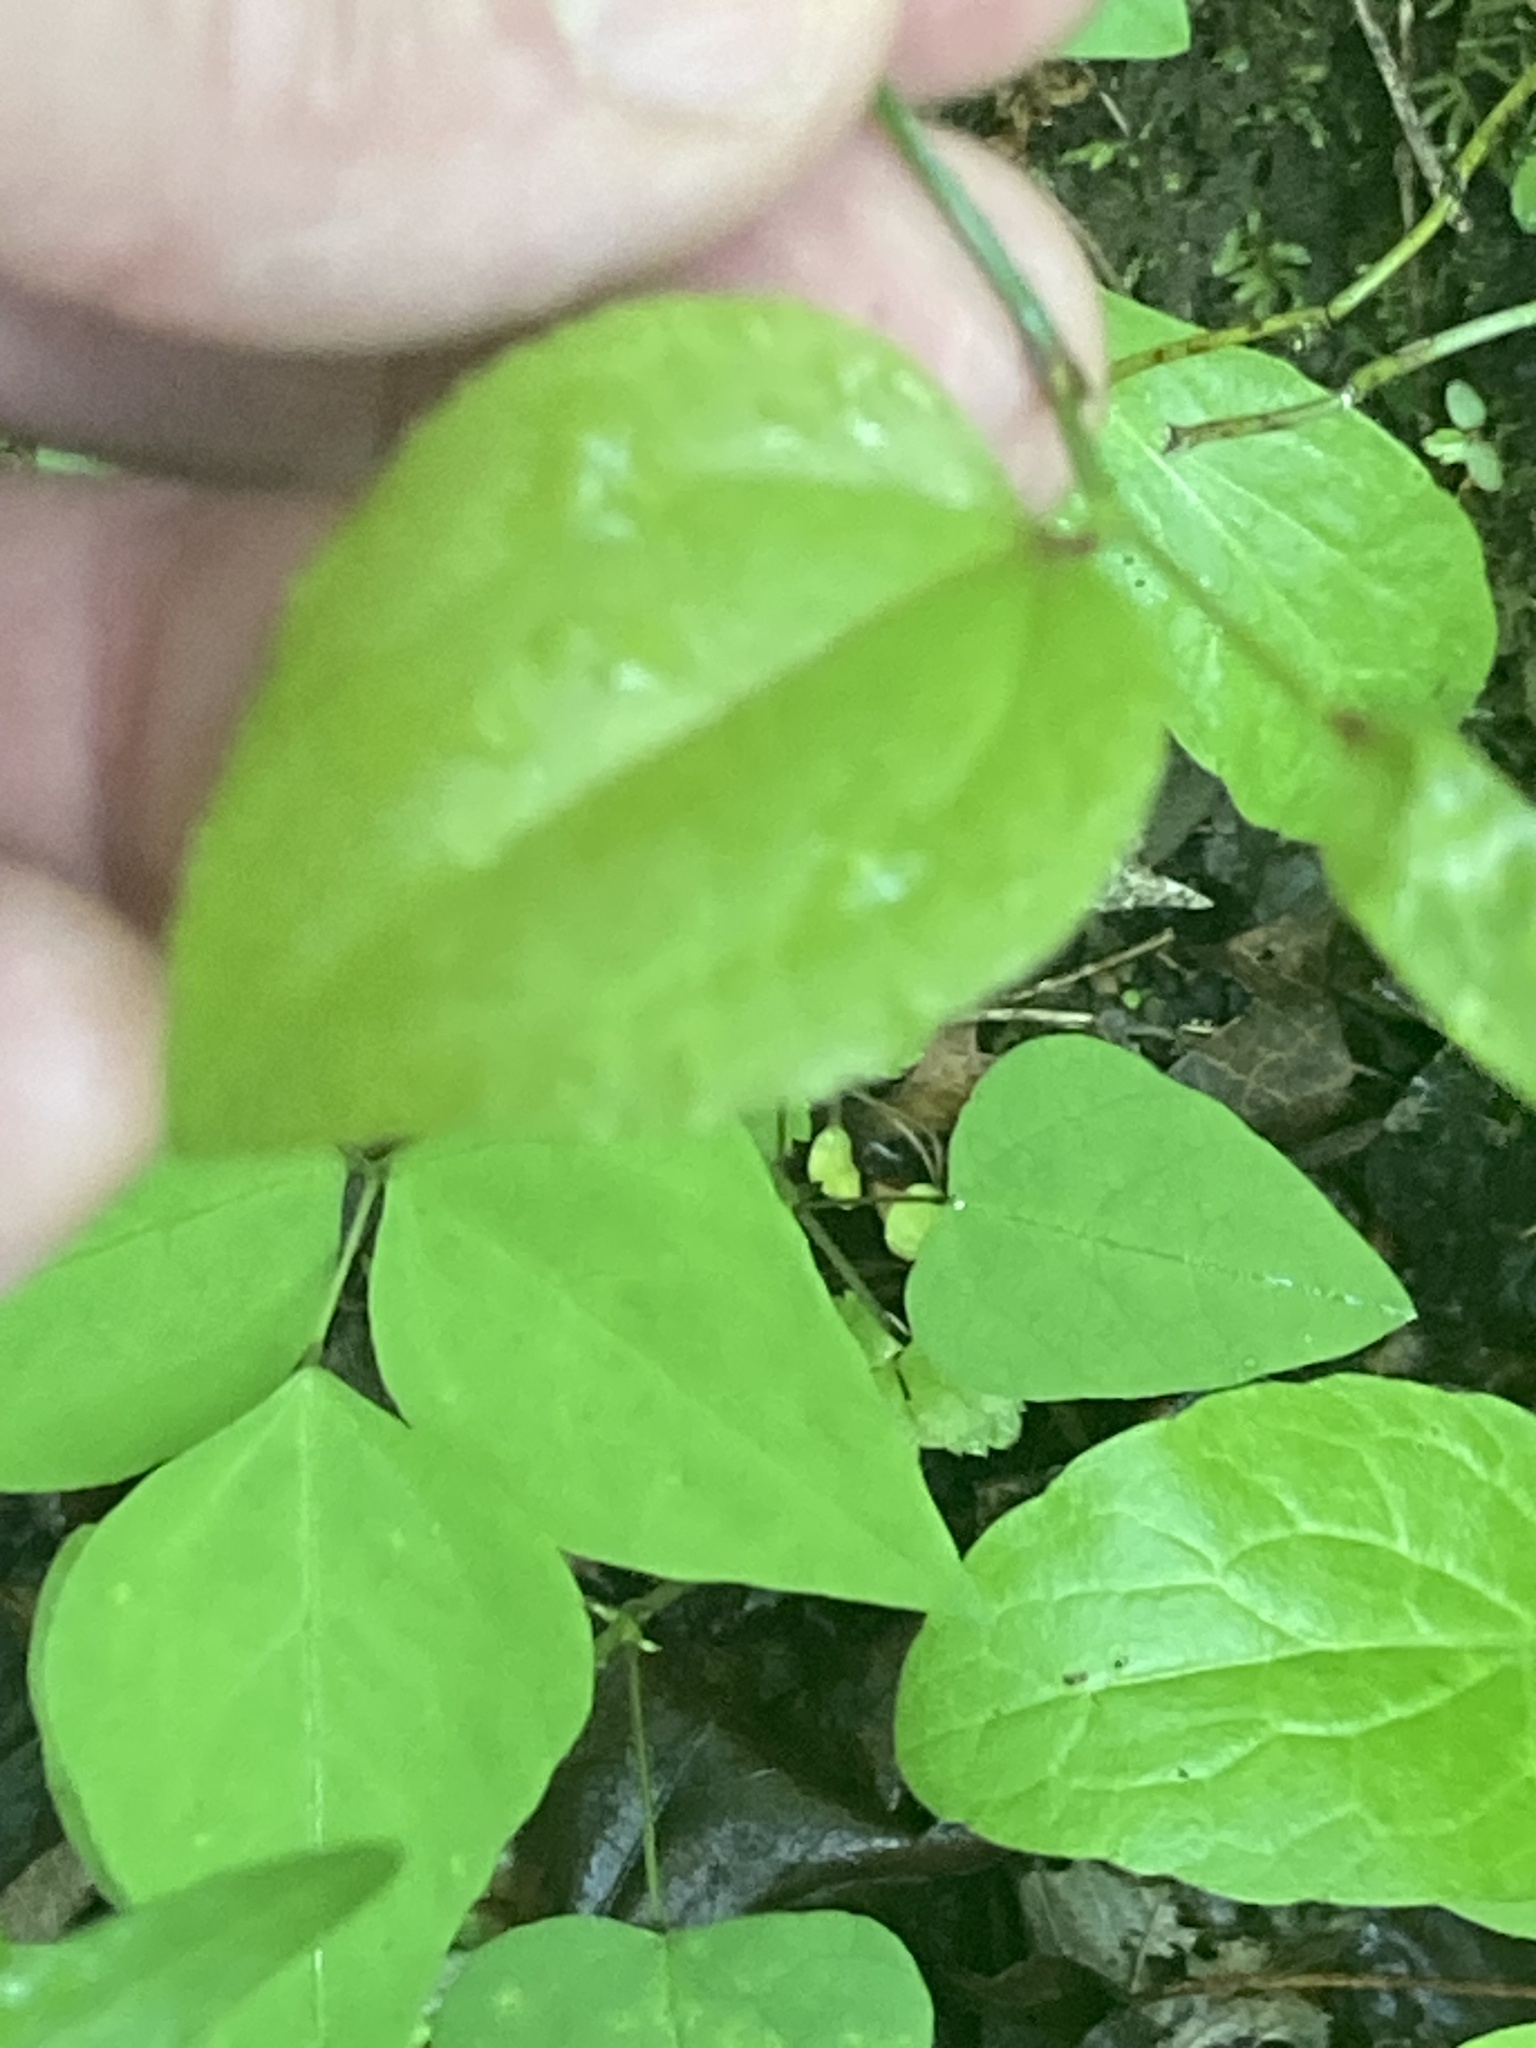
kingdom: Plantae
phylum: Tracheophyta
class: Liliopsida
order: Liliales
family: Smilacaceae
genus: Smilax
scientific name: Smilax rotundifolia
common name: Bullbriar
